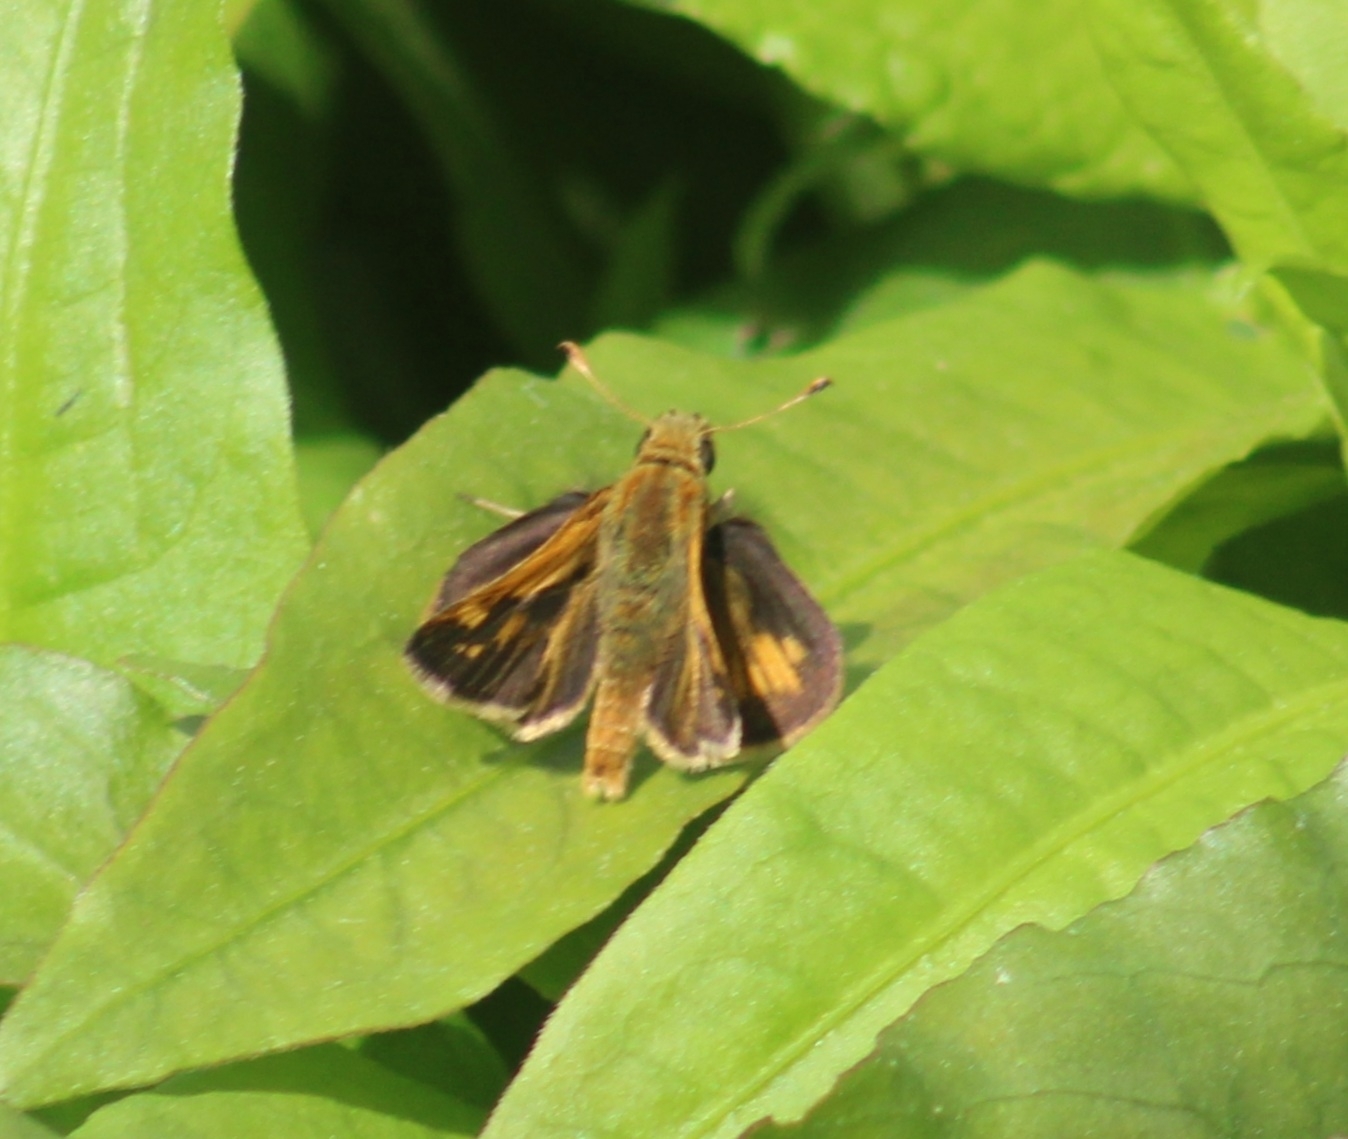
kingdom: Animalia
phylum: Arthropoda
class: Insecta
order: Lepidoptera
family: Hesperiidae
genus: Polites
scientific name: Polites coras
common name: Peck's skipper
